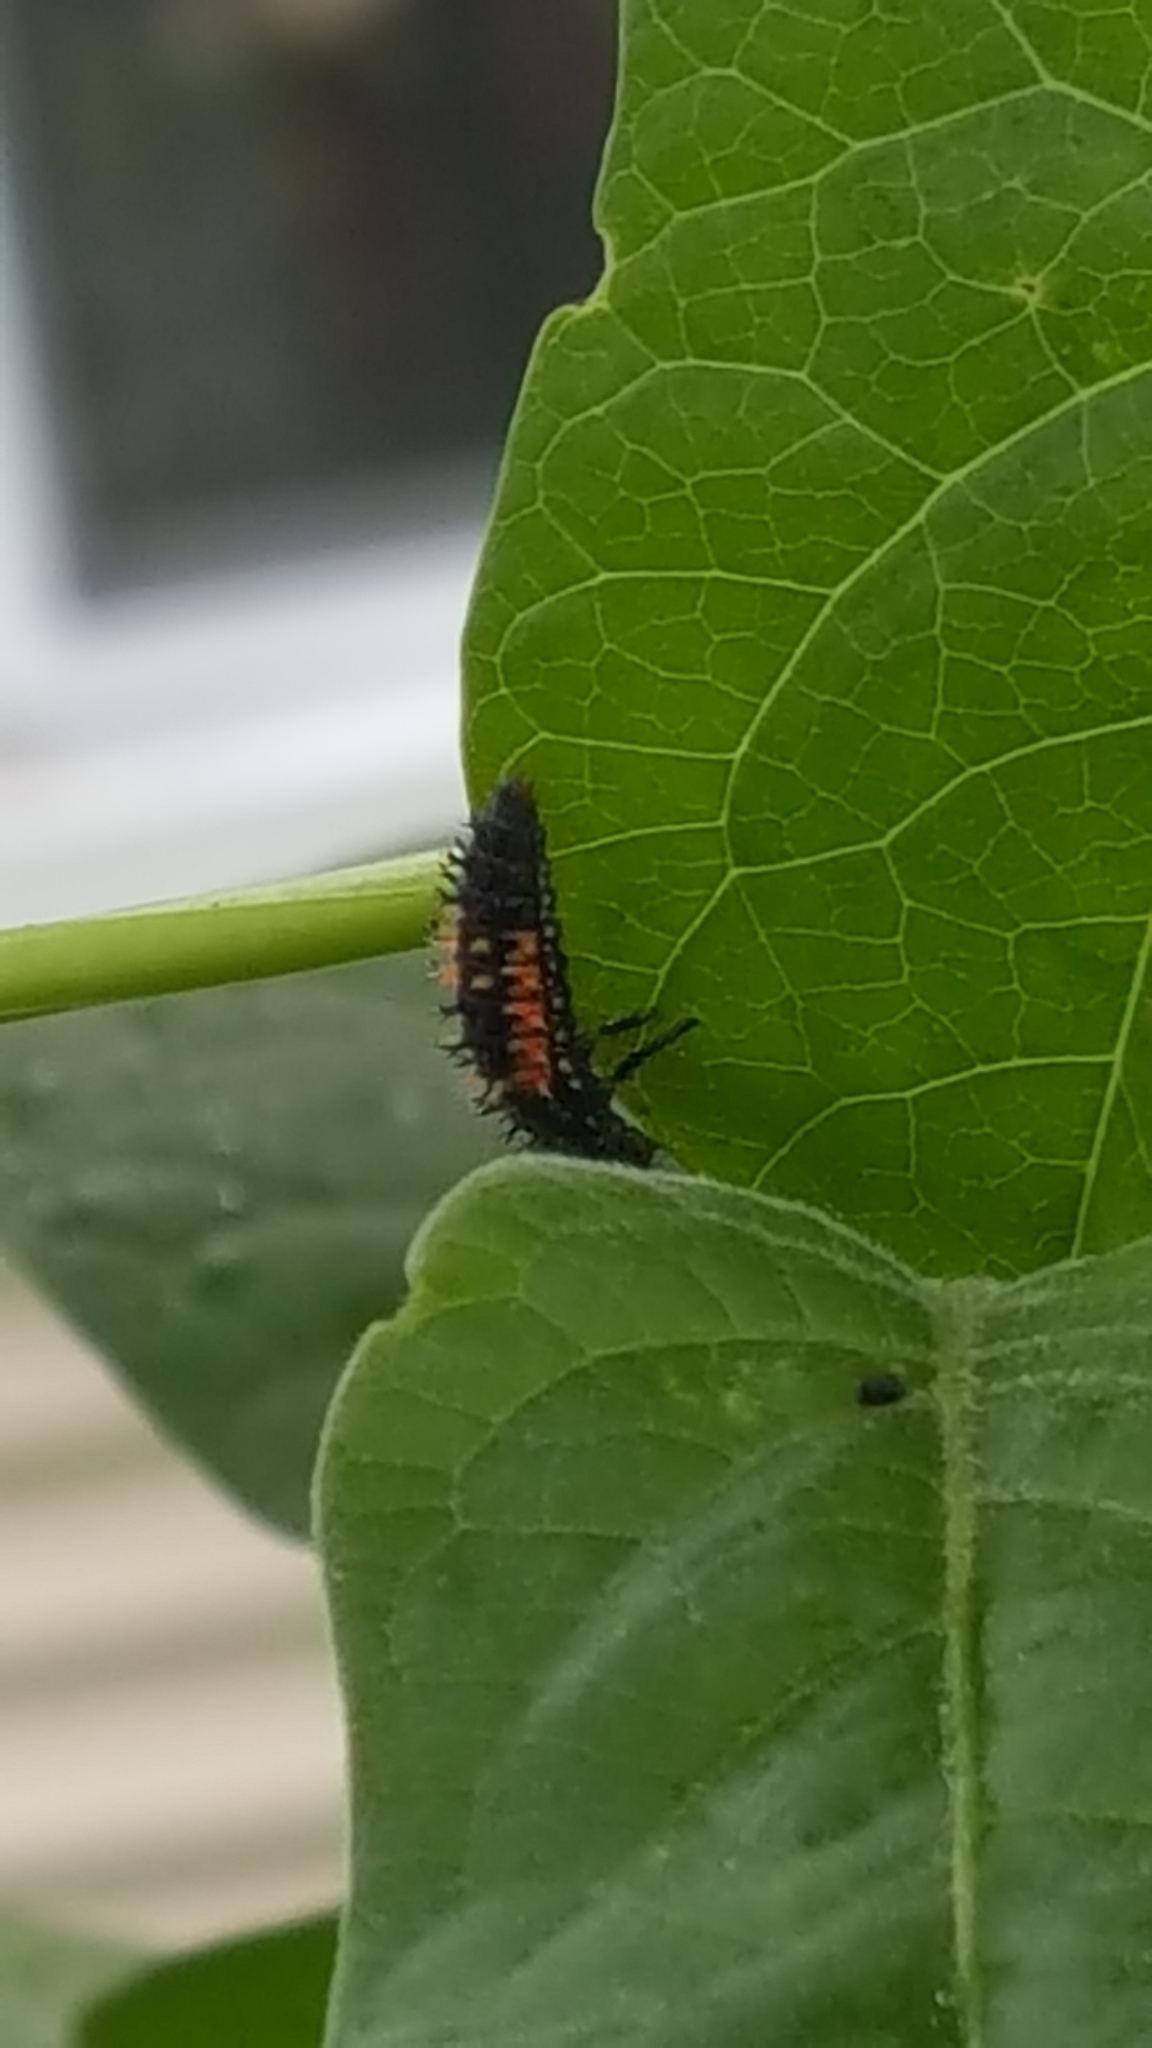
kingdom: Animalia
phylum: Arthropoda
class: Insecta
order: Coleoptera
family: Coccinellidae
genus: Harmonia
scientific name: Harmonia axyridis
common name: Harlequin ladybird
